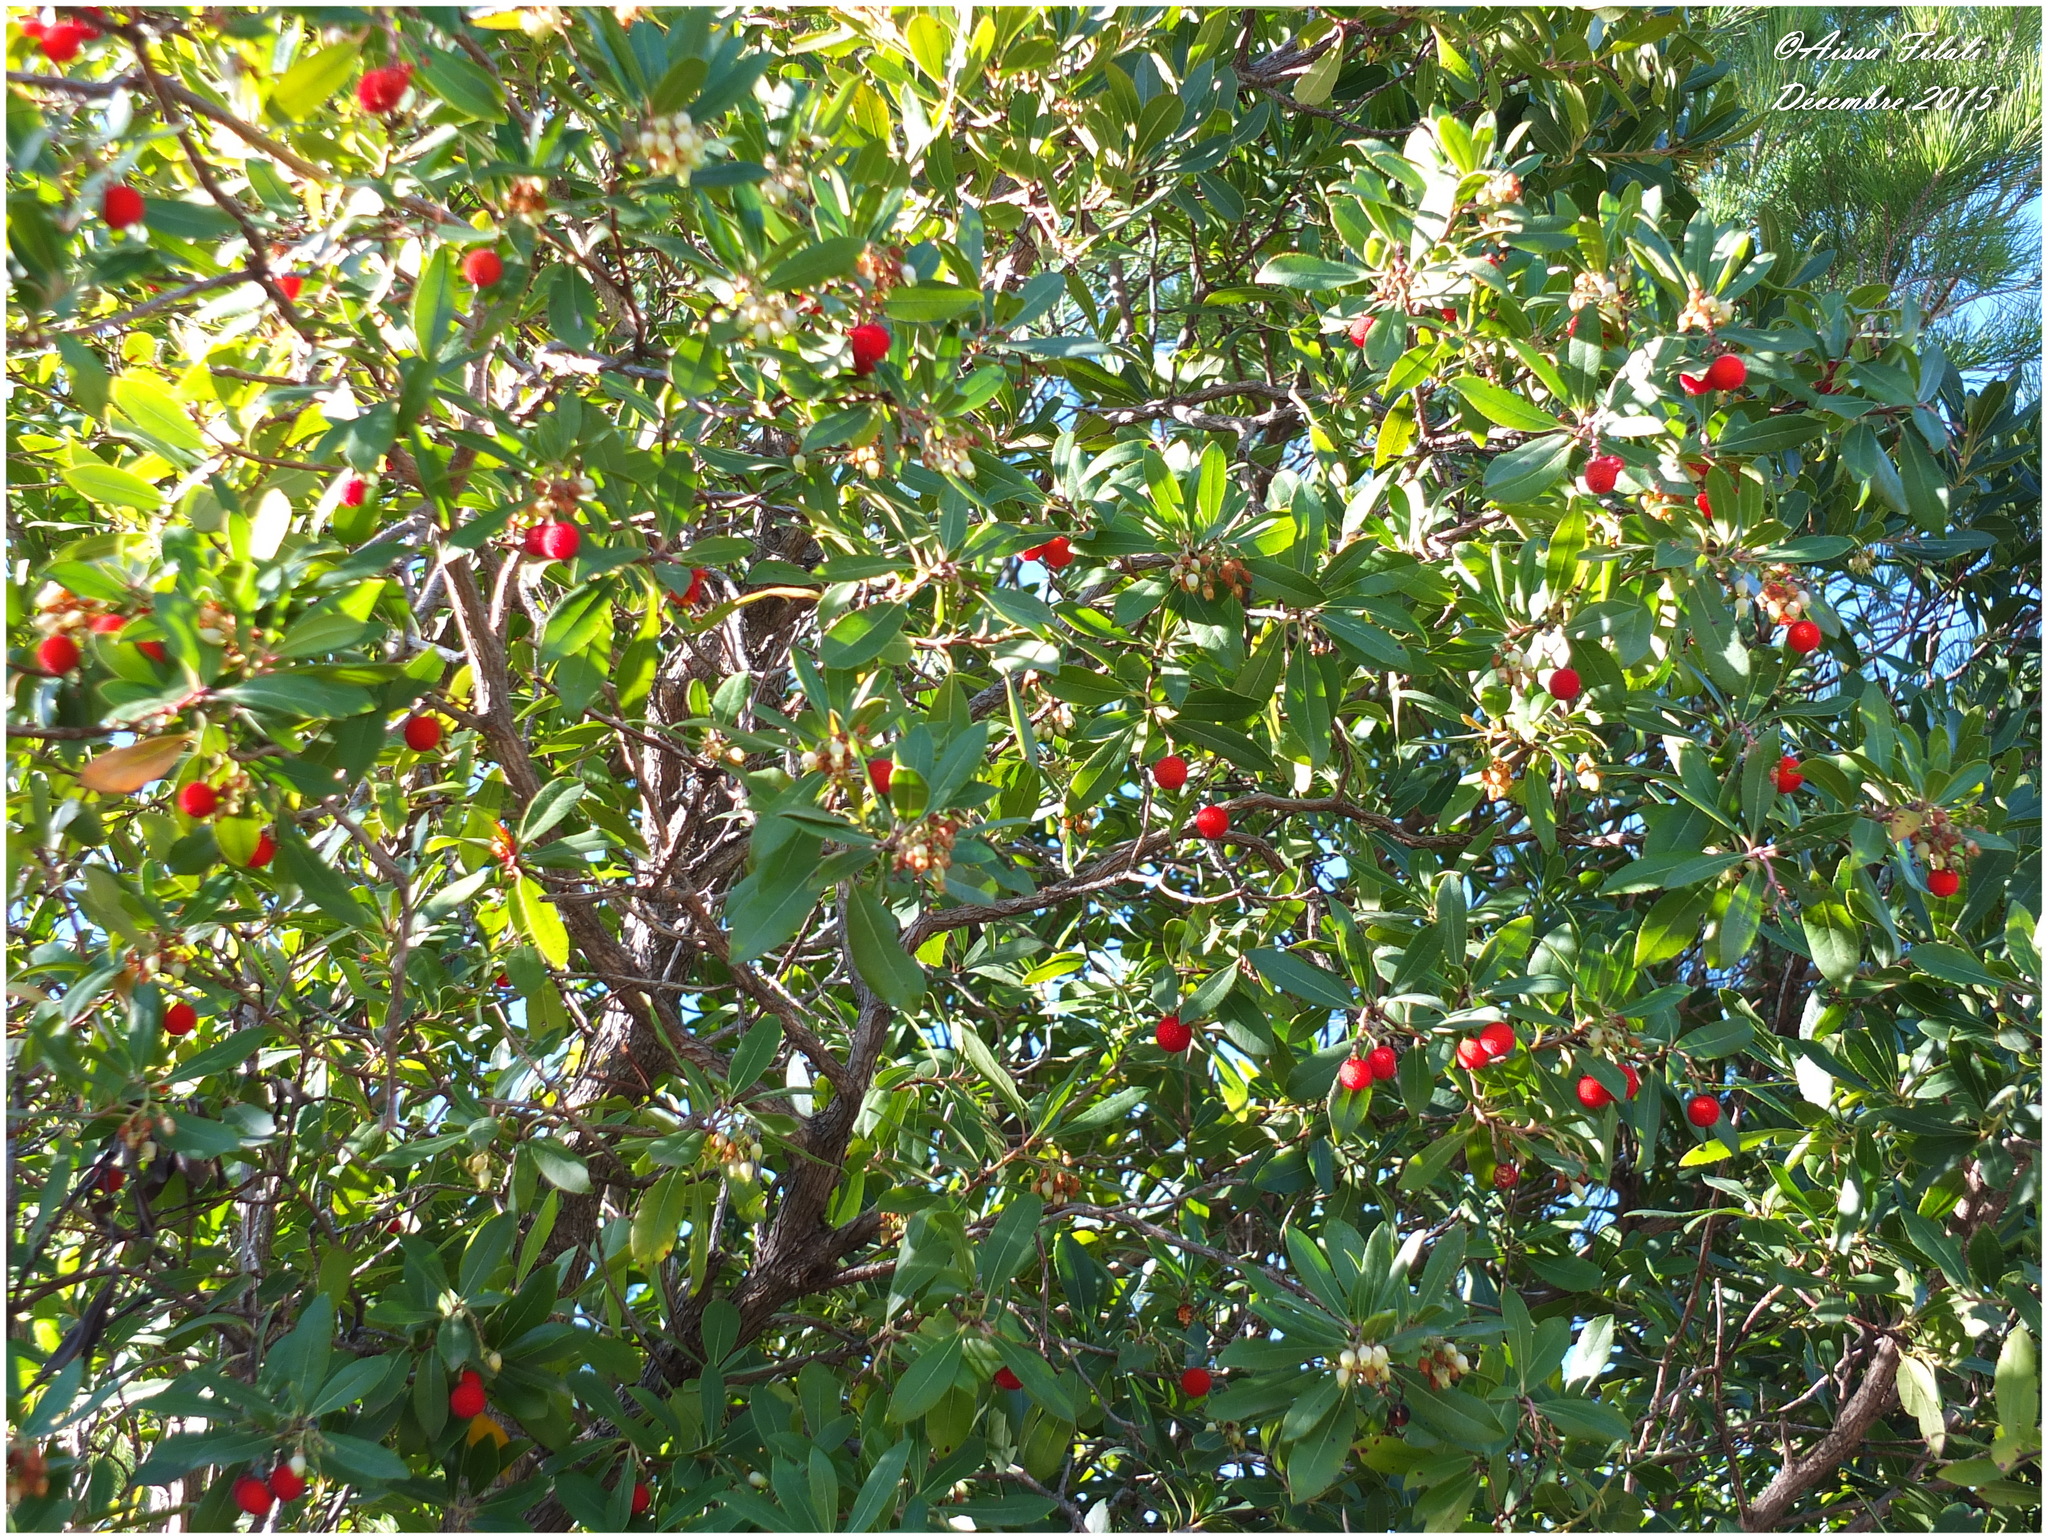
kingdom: Plantae
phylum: Tracheophyta
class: Magnoliopsida
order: Ericales
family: Ericaceae
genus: Arbutus
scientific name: Arbutus unedo
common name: Strawberry-tree
